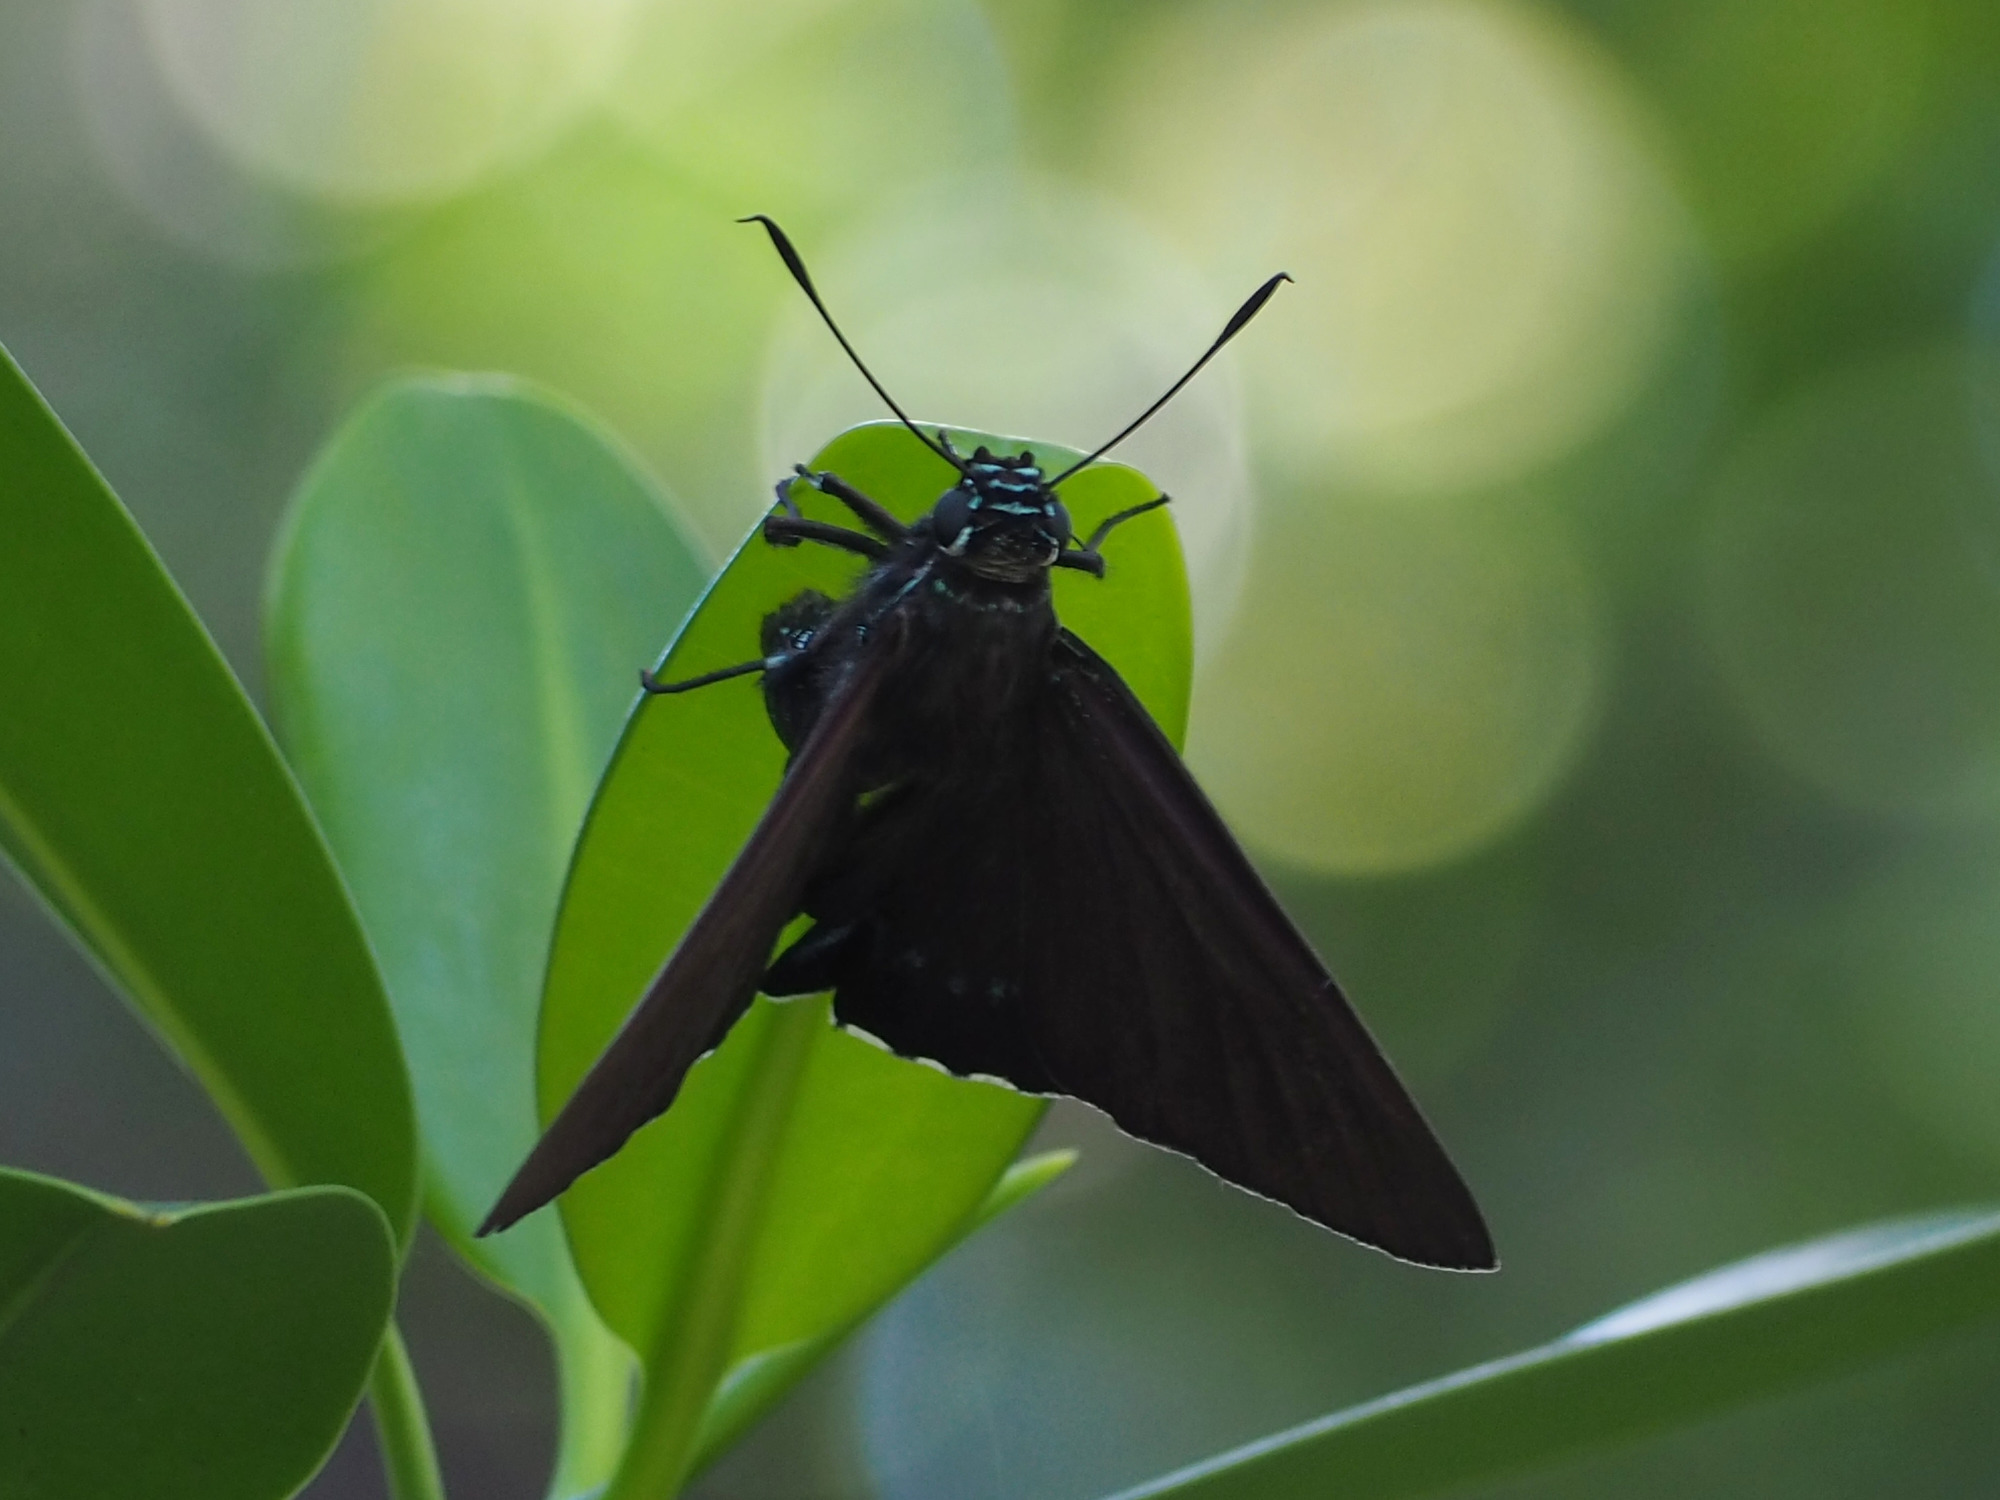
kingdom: Animalia
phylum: Arthropoda
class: Insecta
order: Lepidoptera
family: Hesperiidae
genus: Phocides
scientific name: Phocides pigmalion
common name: Mangrove skipper
